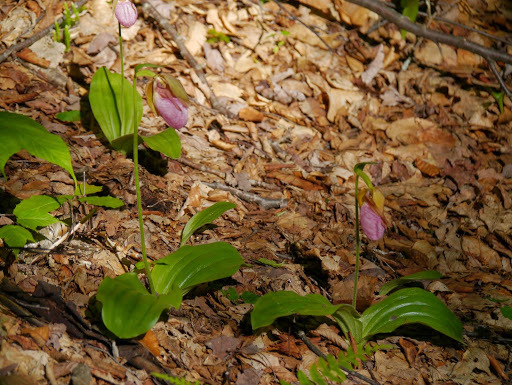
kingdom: Plantae
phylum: Tracheophyta
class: Liliopsida
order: Asparagales
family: Orchidaceae
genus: Cypripedium
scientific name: Cypripedium acaule
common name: Pink lady's-slipper
